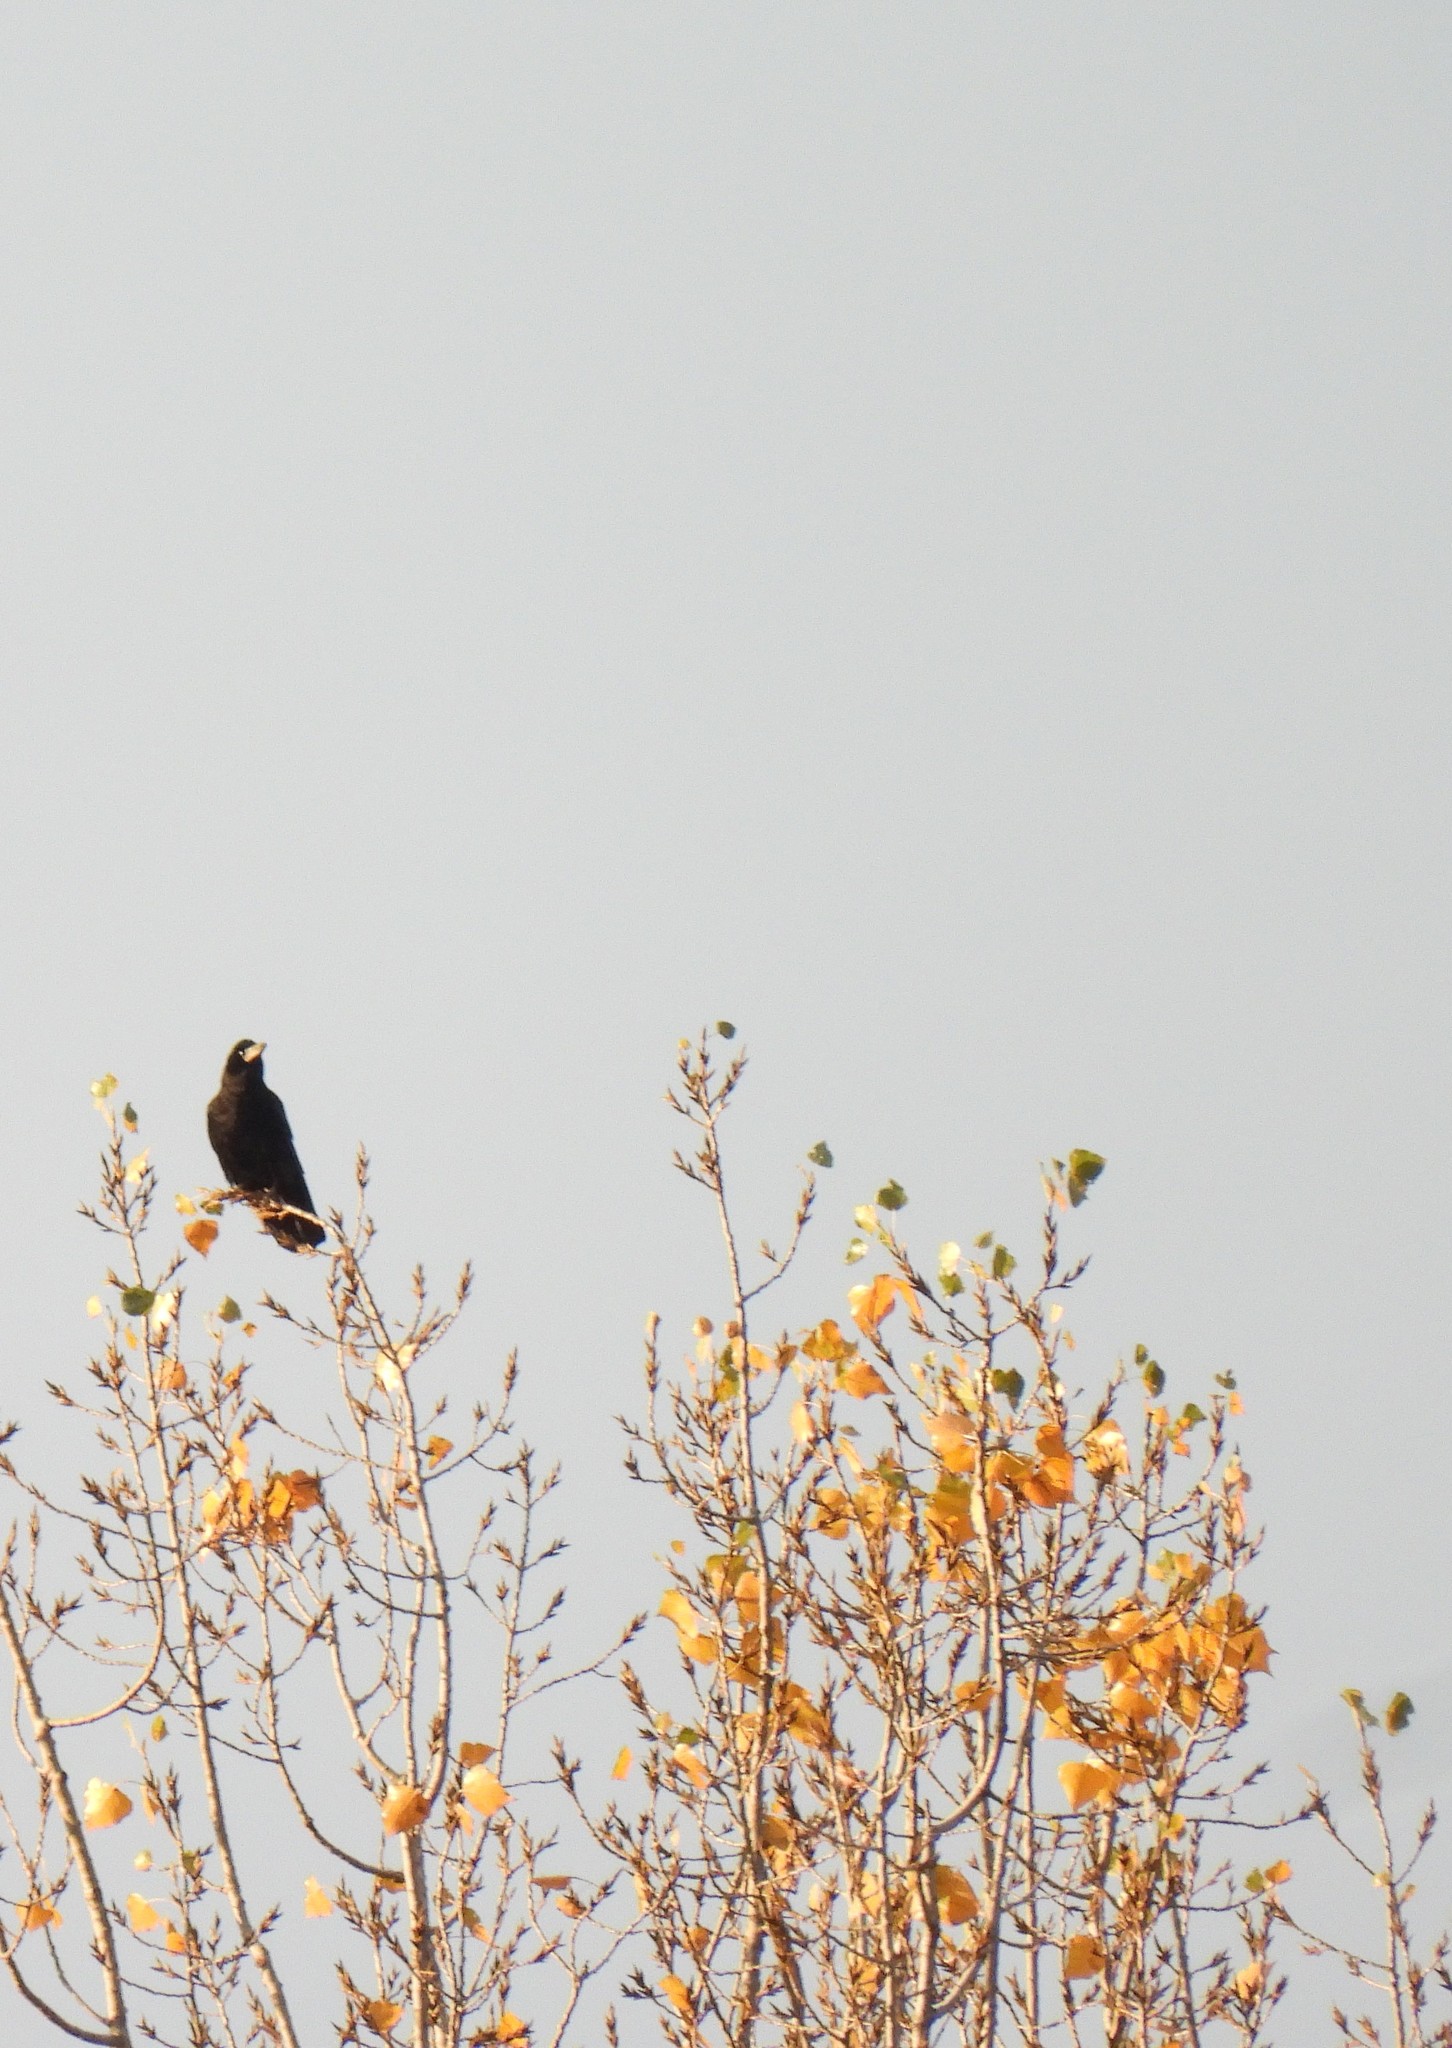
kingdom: Animalia
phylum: Chordata
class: Aves
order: Passeriformes
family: Corvidae
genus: Corvus
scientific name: Corvus frugilegus
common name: Rook
